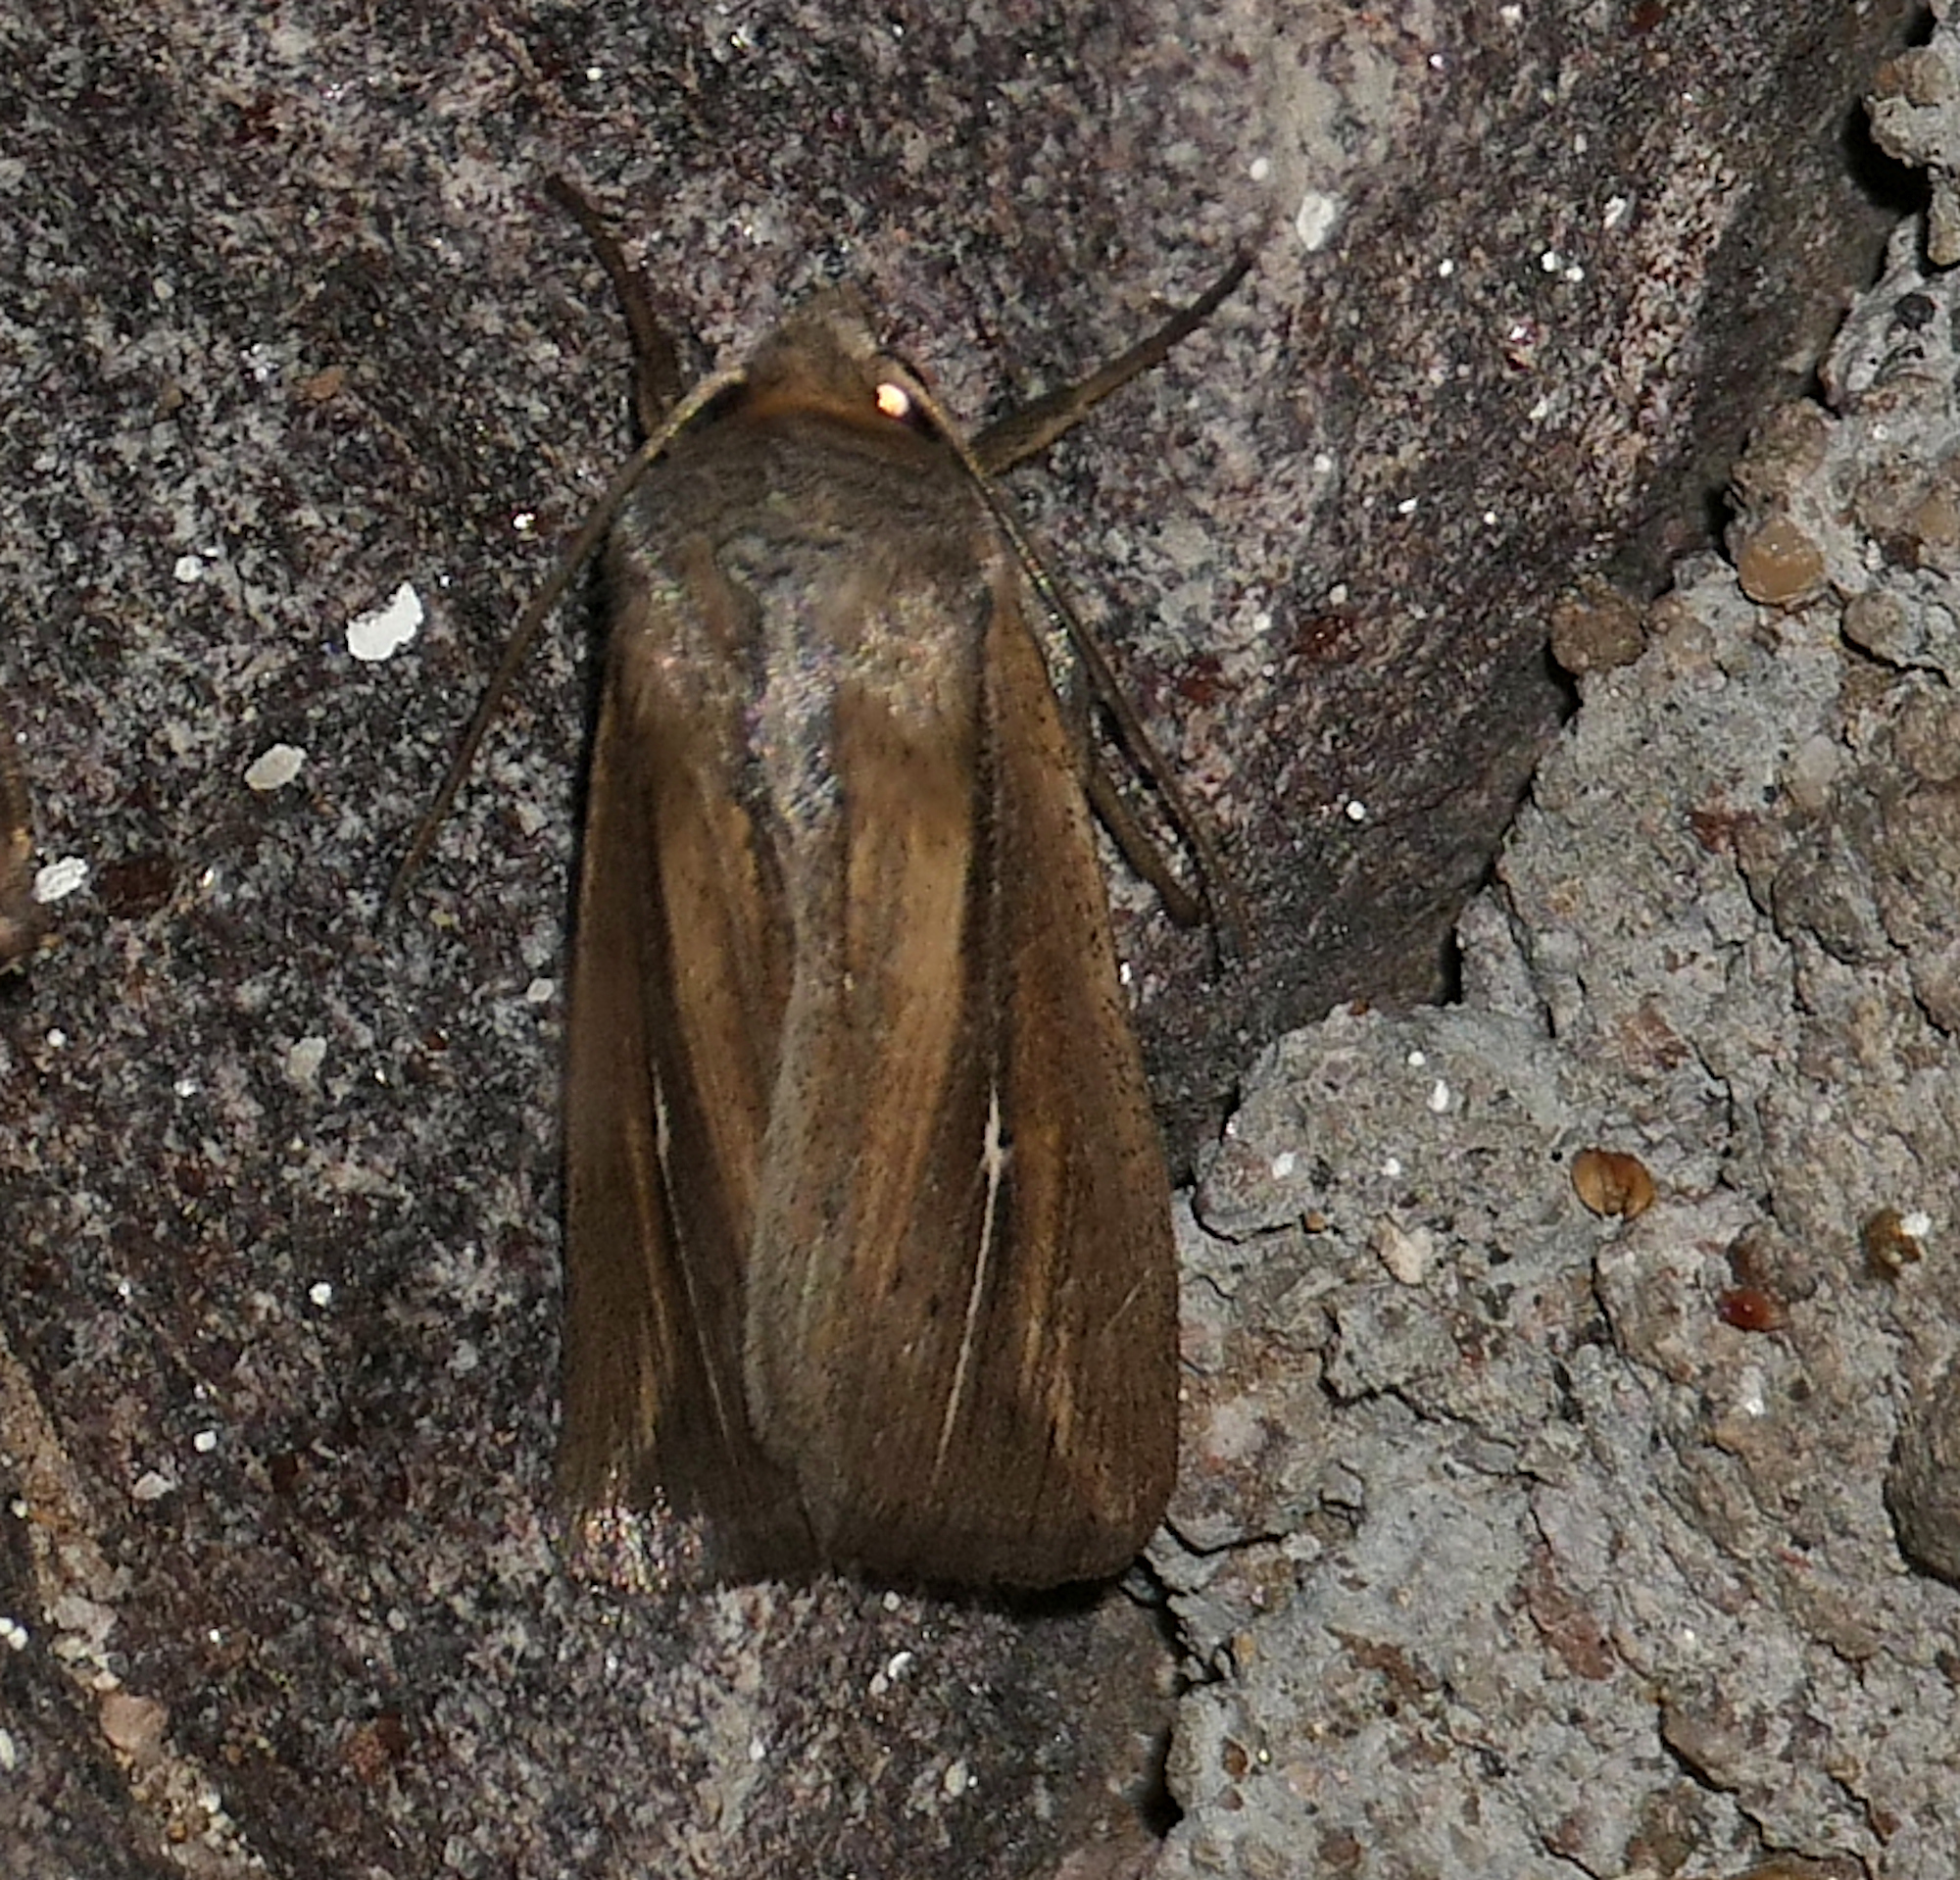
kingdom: Animalia
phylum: Arthropoda
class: Insecta
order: Lepidoptera
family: Noctuidae
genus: Leucania
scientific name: Leucania imperfecta
